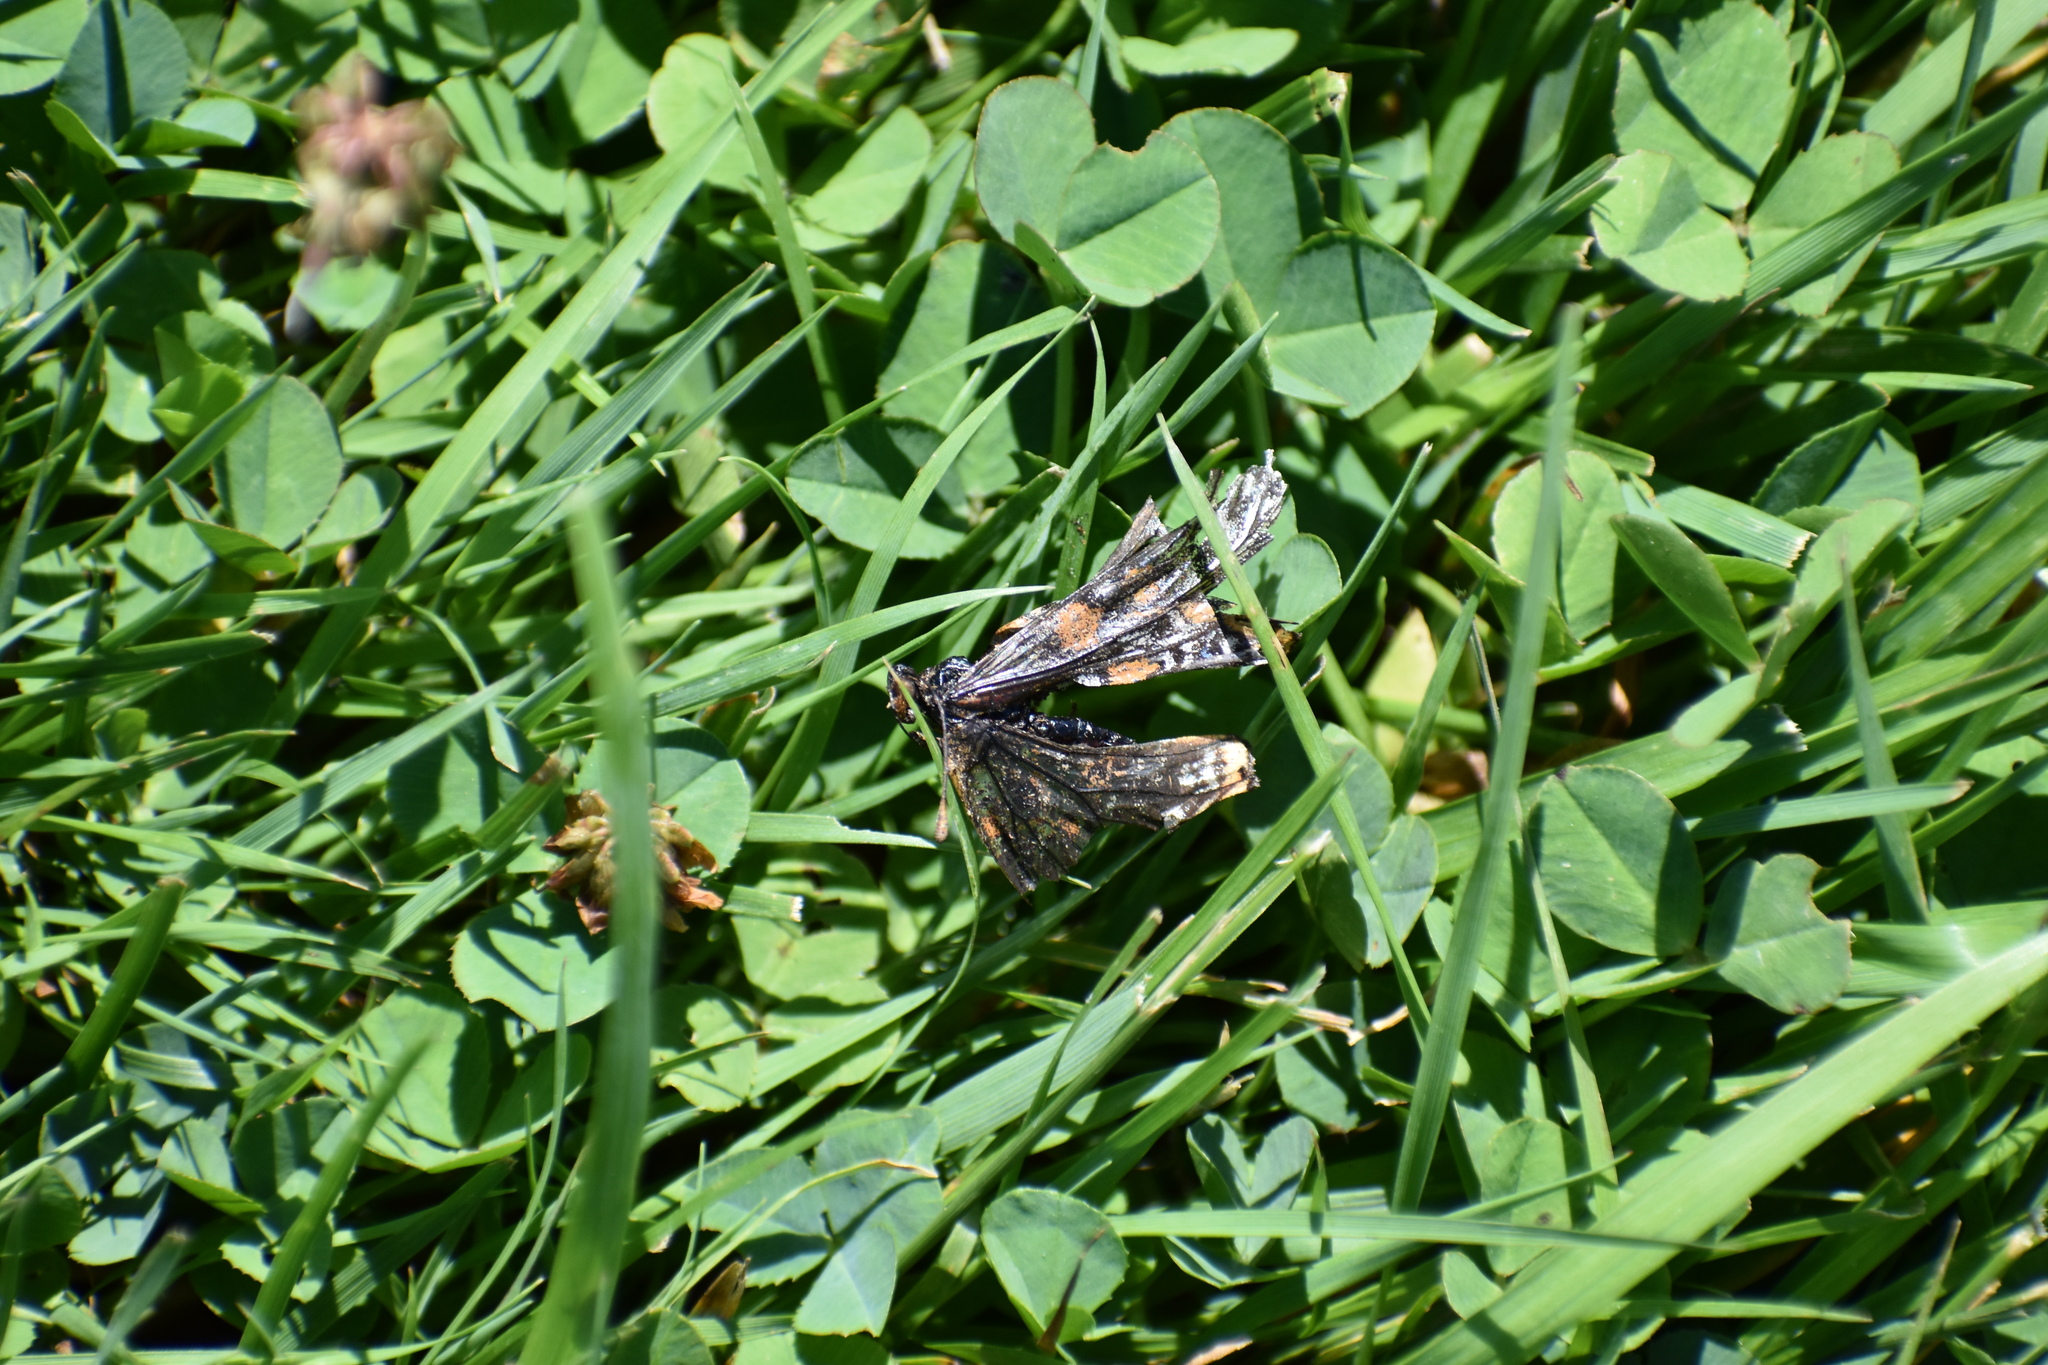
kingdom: Animalia
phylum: Arthropoda
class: Insecta
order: Lepidoptera
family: Nymphalidae
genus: Euphydryas
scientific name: Euphydryas phaeton
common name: Baltimore checkerspot
